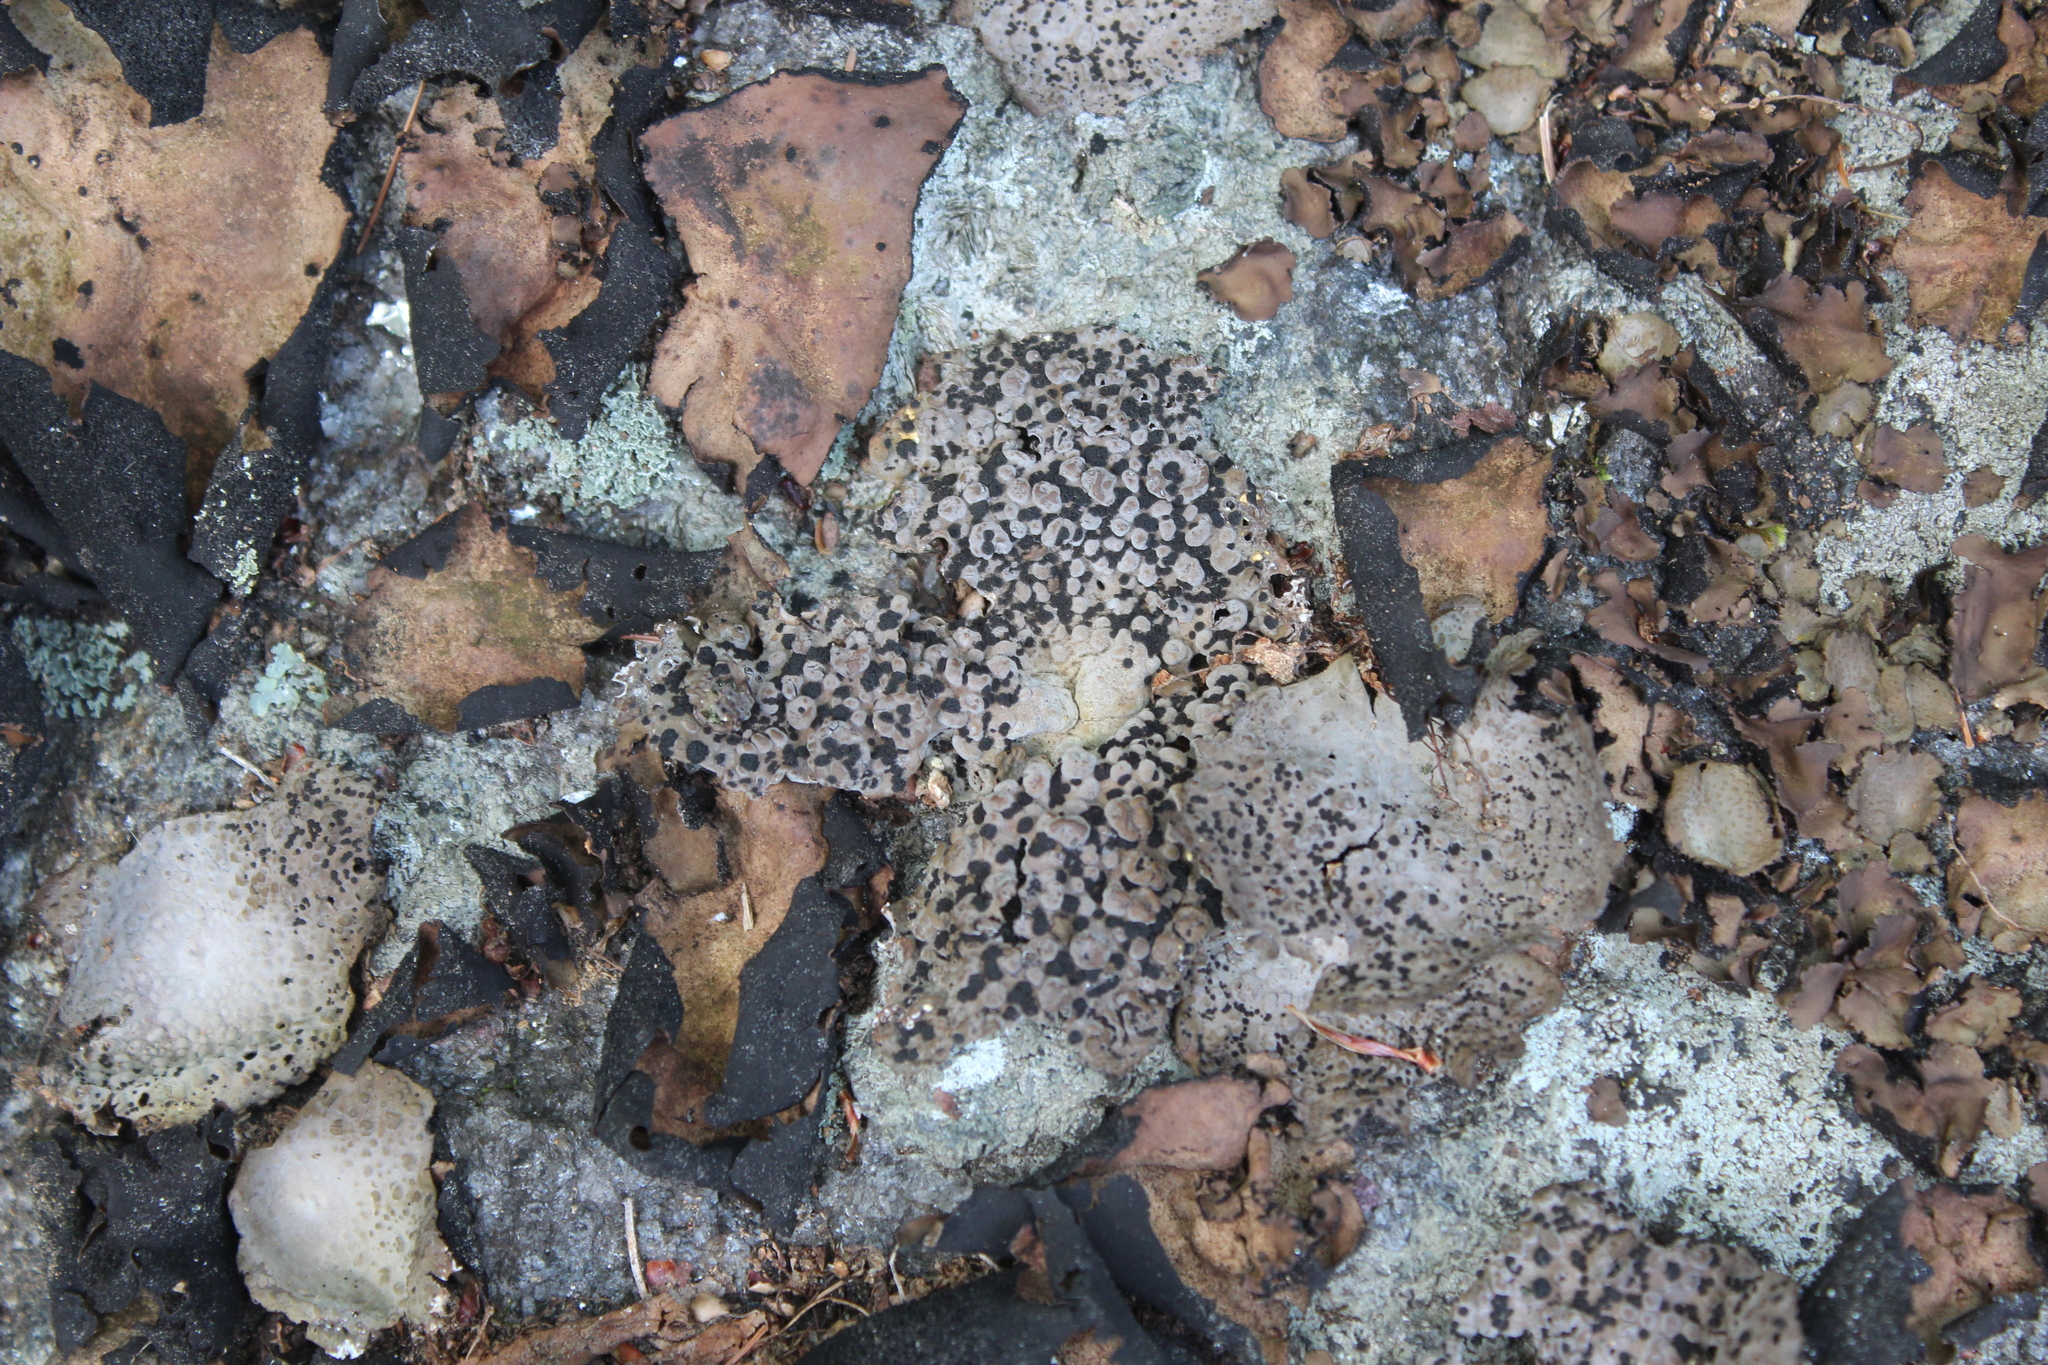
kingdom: Fungi
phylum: Ascomycota
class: Lecanoromycetes
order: Umbilicariales
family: Umbilicariaceae
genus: Lasallia
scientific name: Lasallia papulosa
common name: Common toadskin lichen
